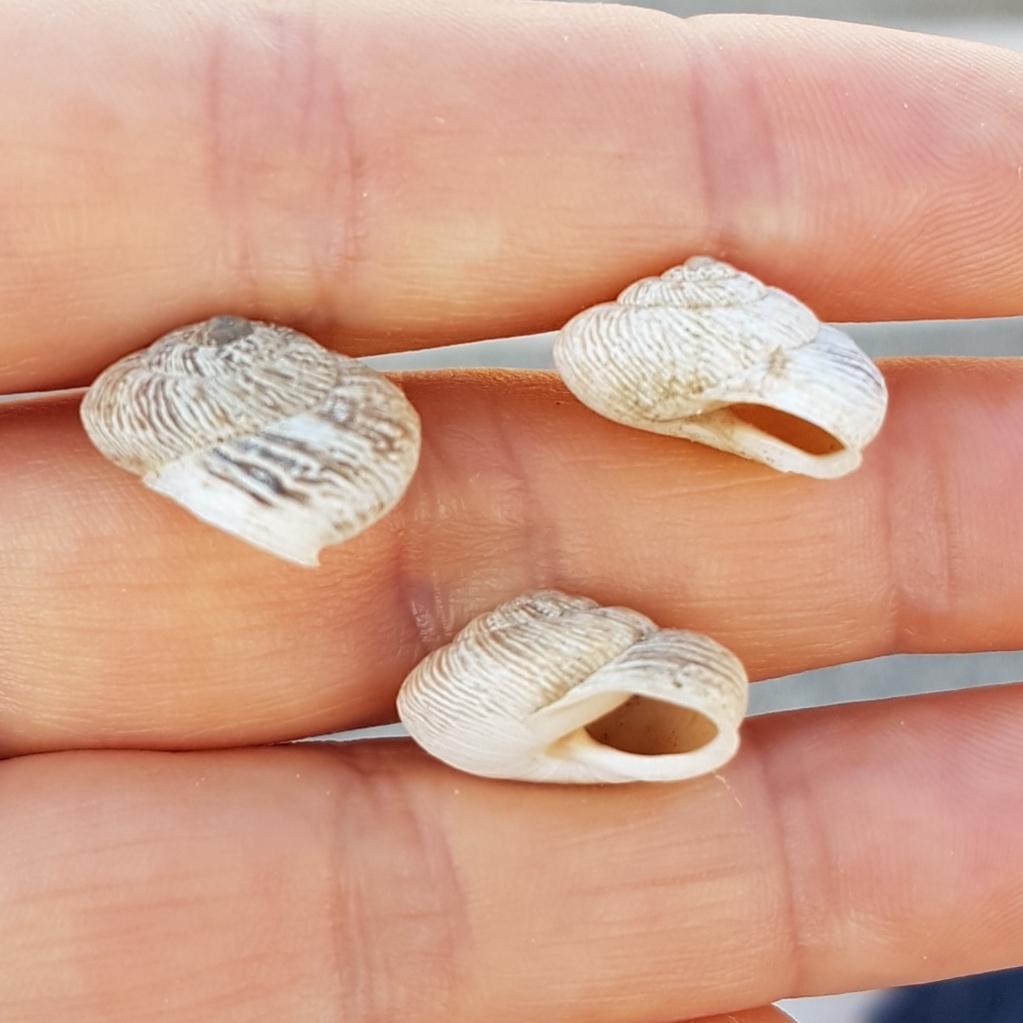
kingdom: Animalia
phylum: Mollusca
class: Gastropoda
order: Stylommatophora
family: Helicidae
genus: Marmorana
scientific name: Marmorana muralis
